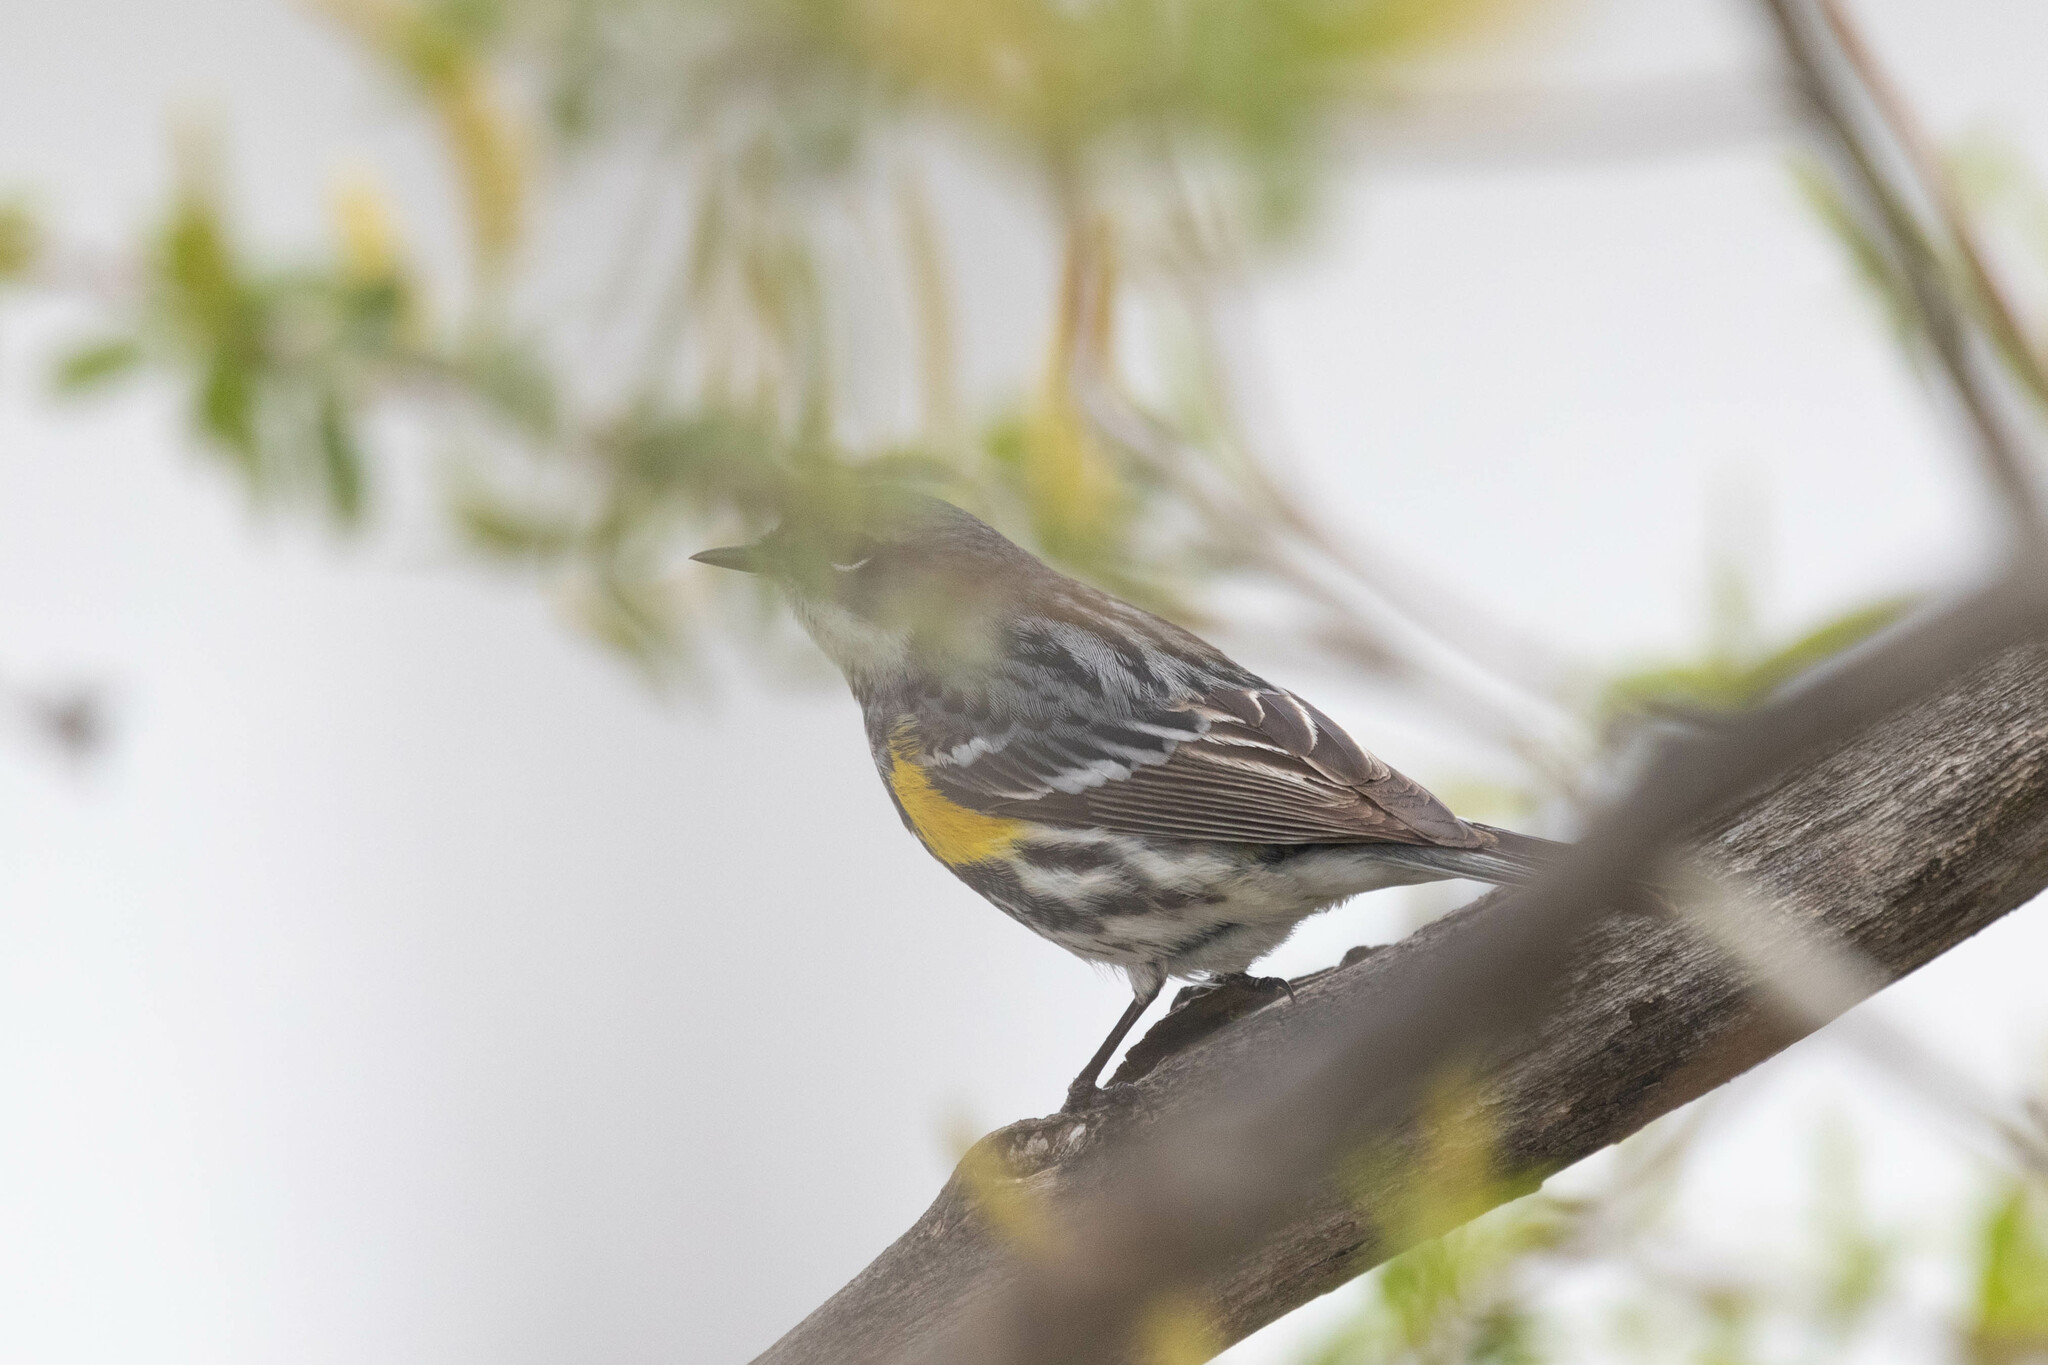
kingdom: Animalia
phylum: Chordata
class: Aves
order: Passeriformes
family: Parulidae
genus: Setophaga
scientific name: Setophaga coronata
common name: Myrtle warbler
